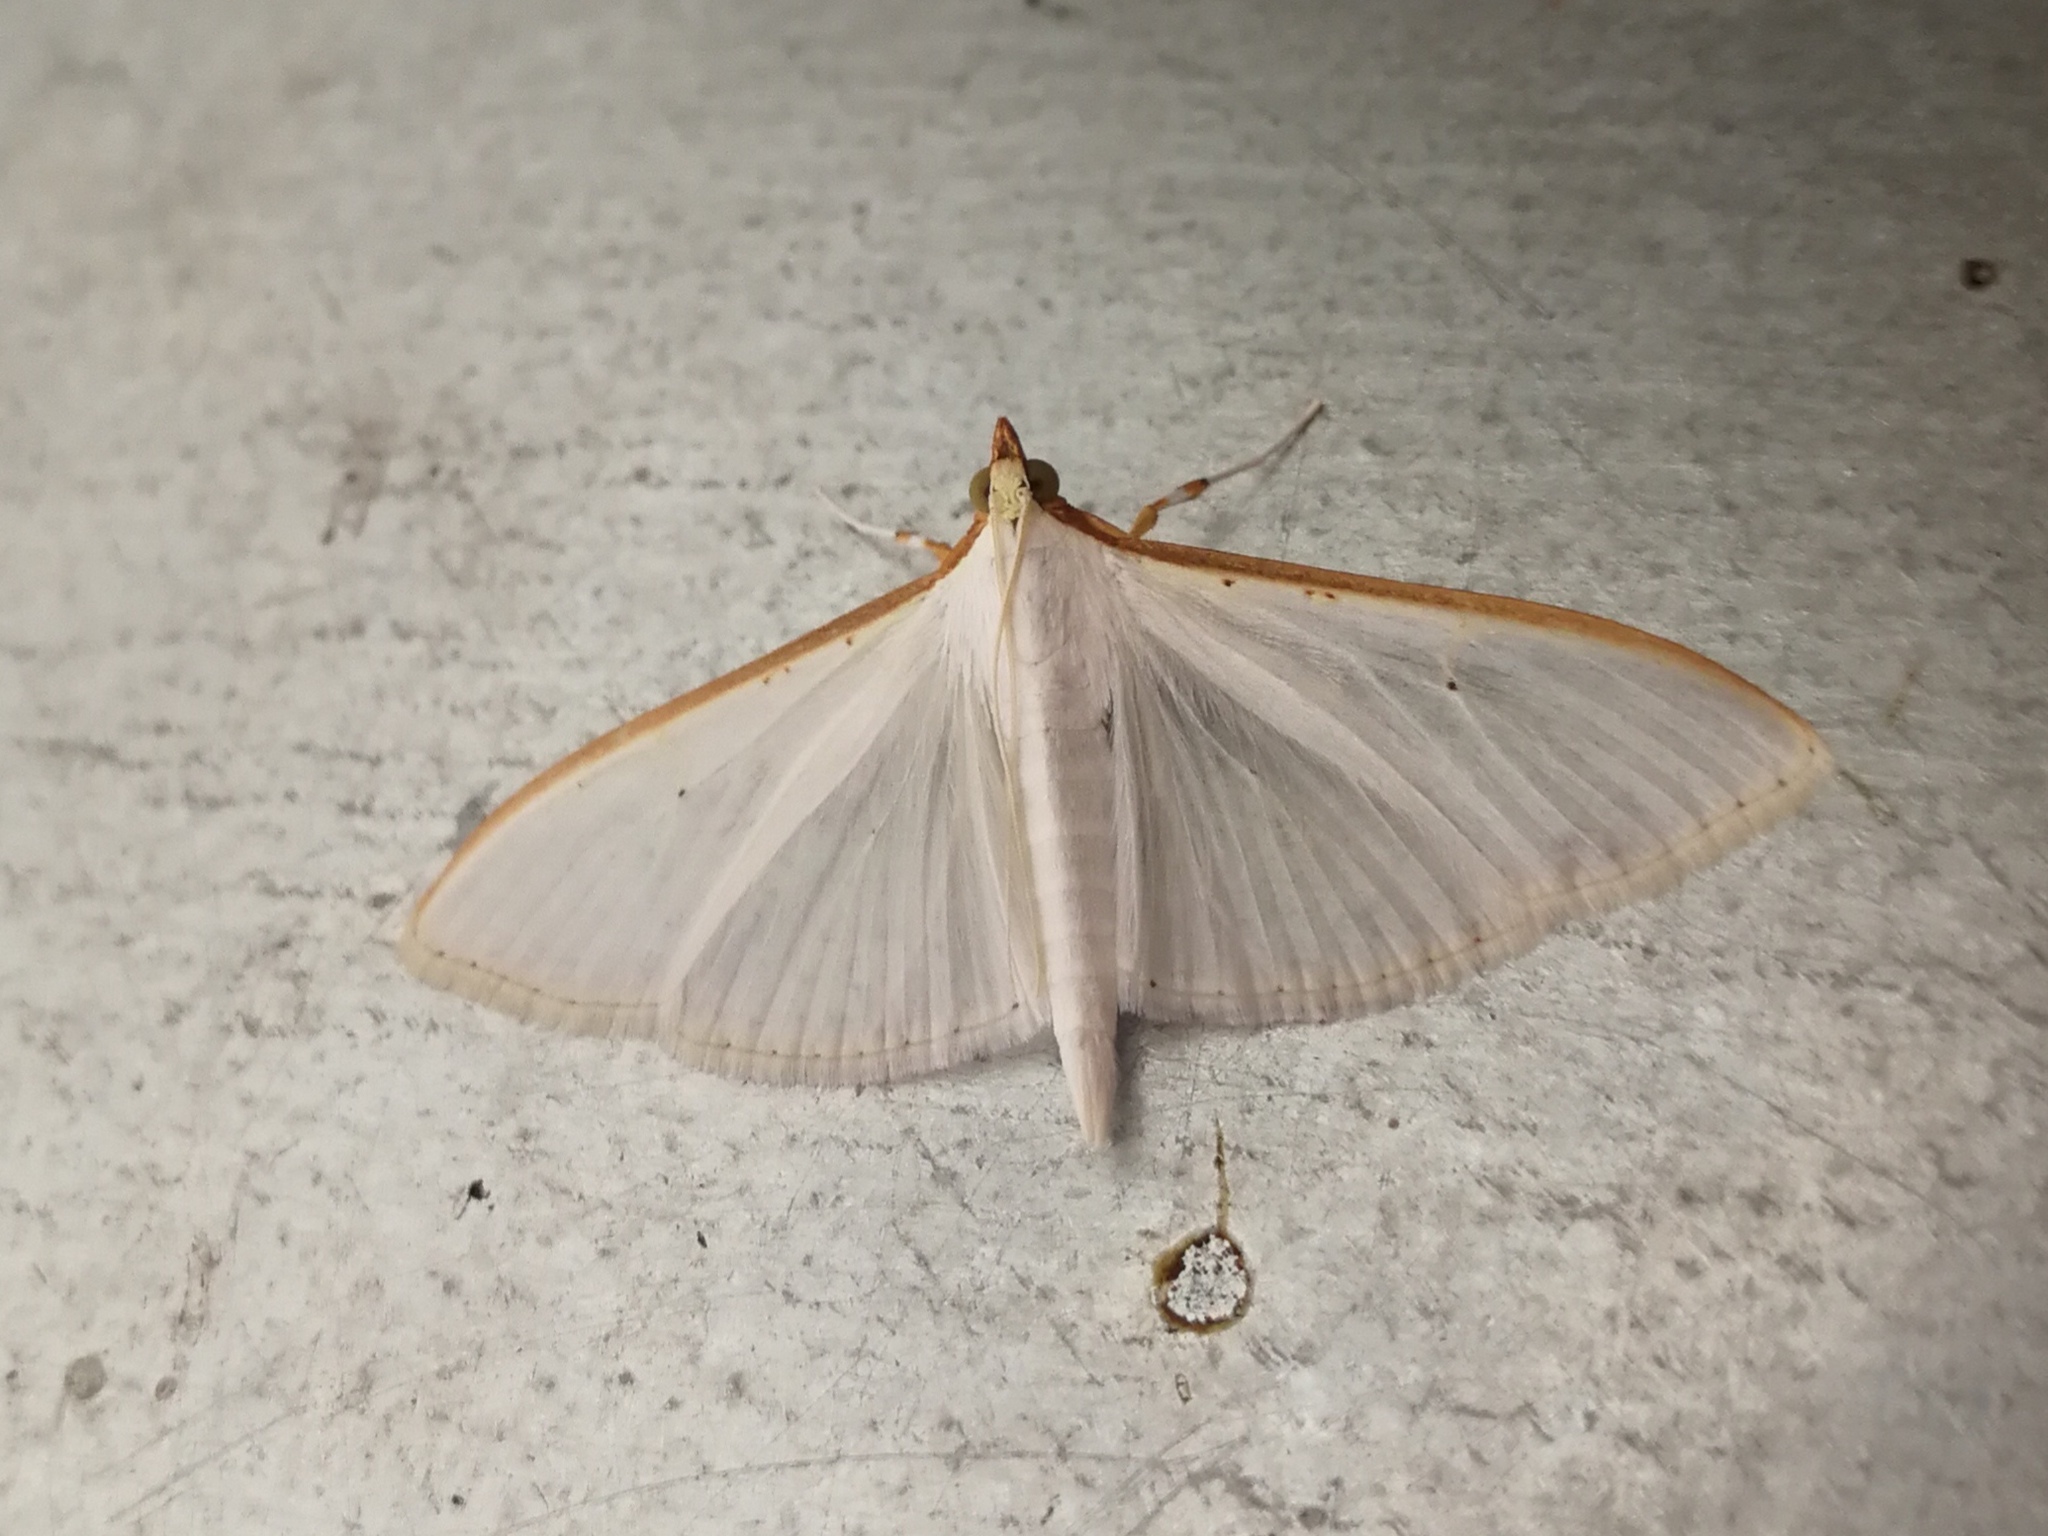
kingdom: Animalia
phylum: Arthropoda
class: Insecta
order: Lepidoptera
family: Crambidae
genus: Palpita
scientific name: Palpita vitrealis
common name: Olive-tree pearl
